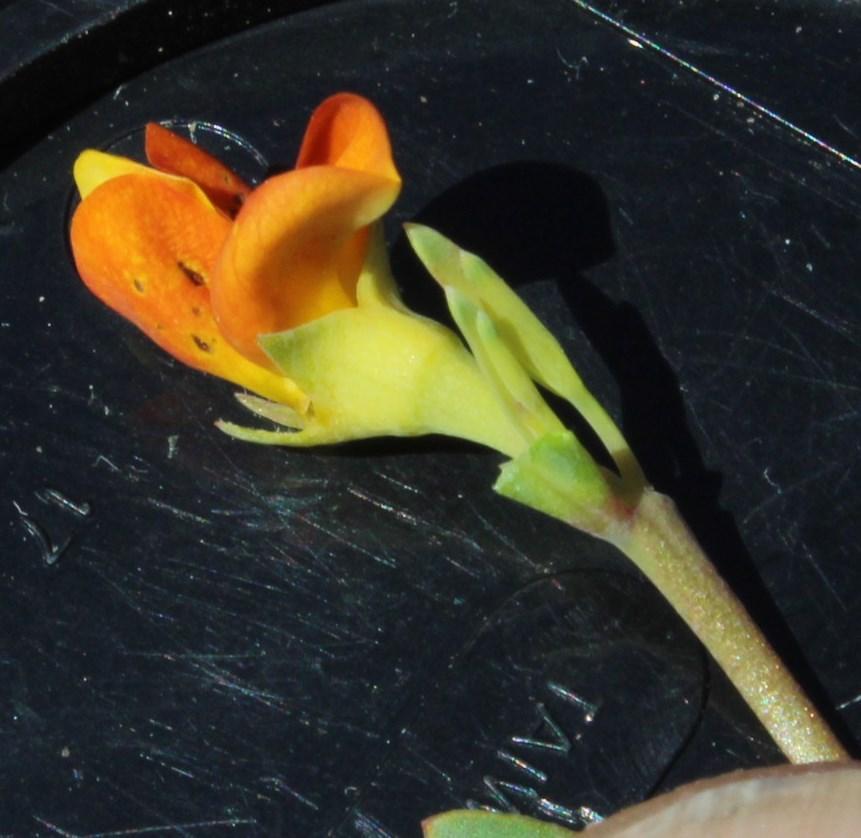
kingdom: Plantae
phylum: Tracheophyta
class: Magnoliopsida
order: Fabales
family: Fabaceae
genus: Rafnia
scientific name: Rafnia capensis
